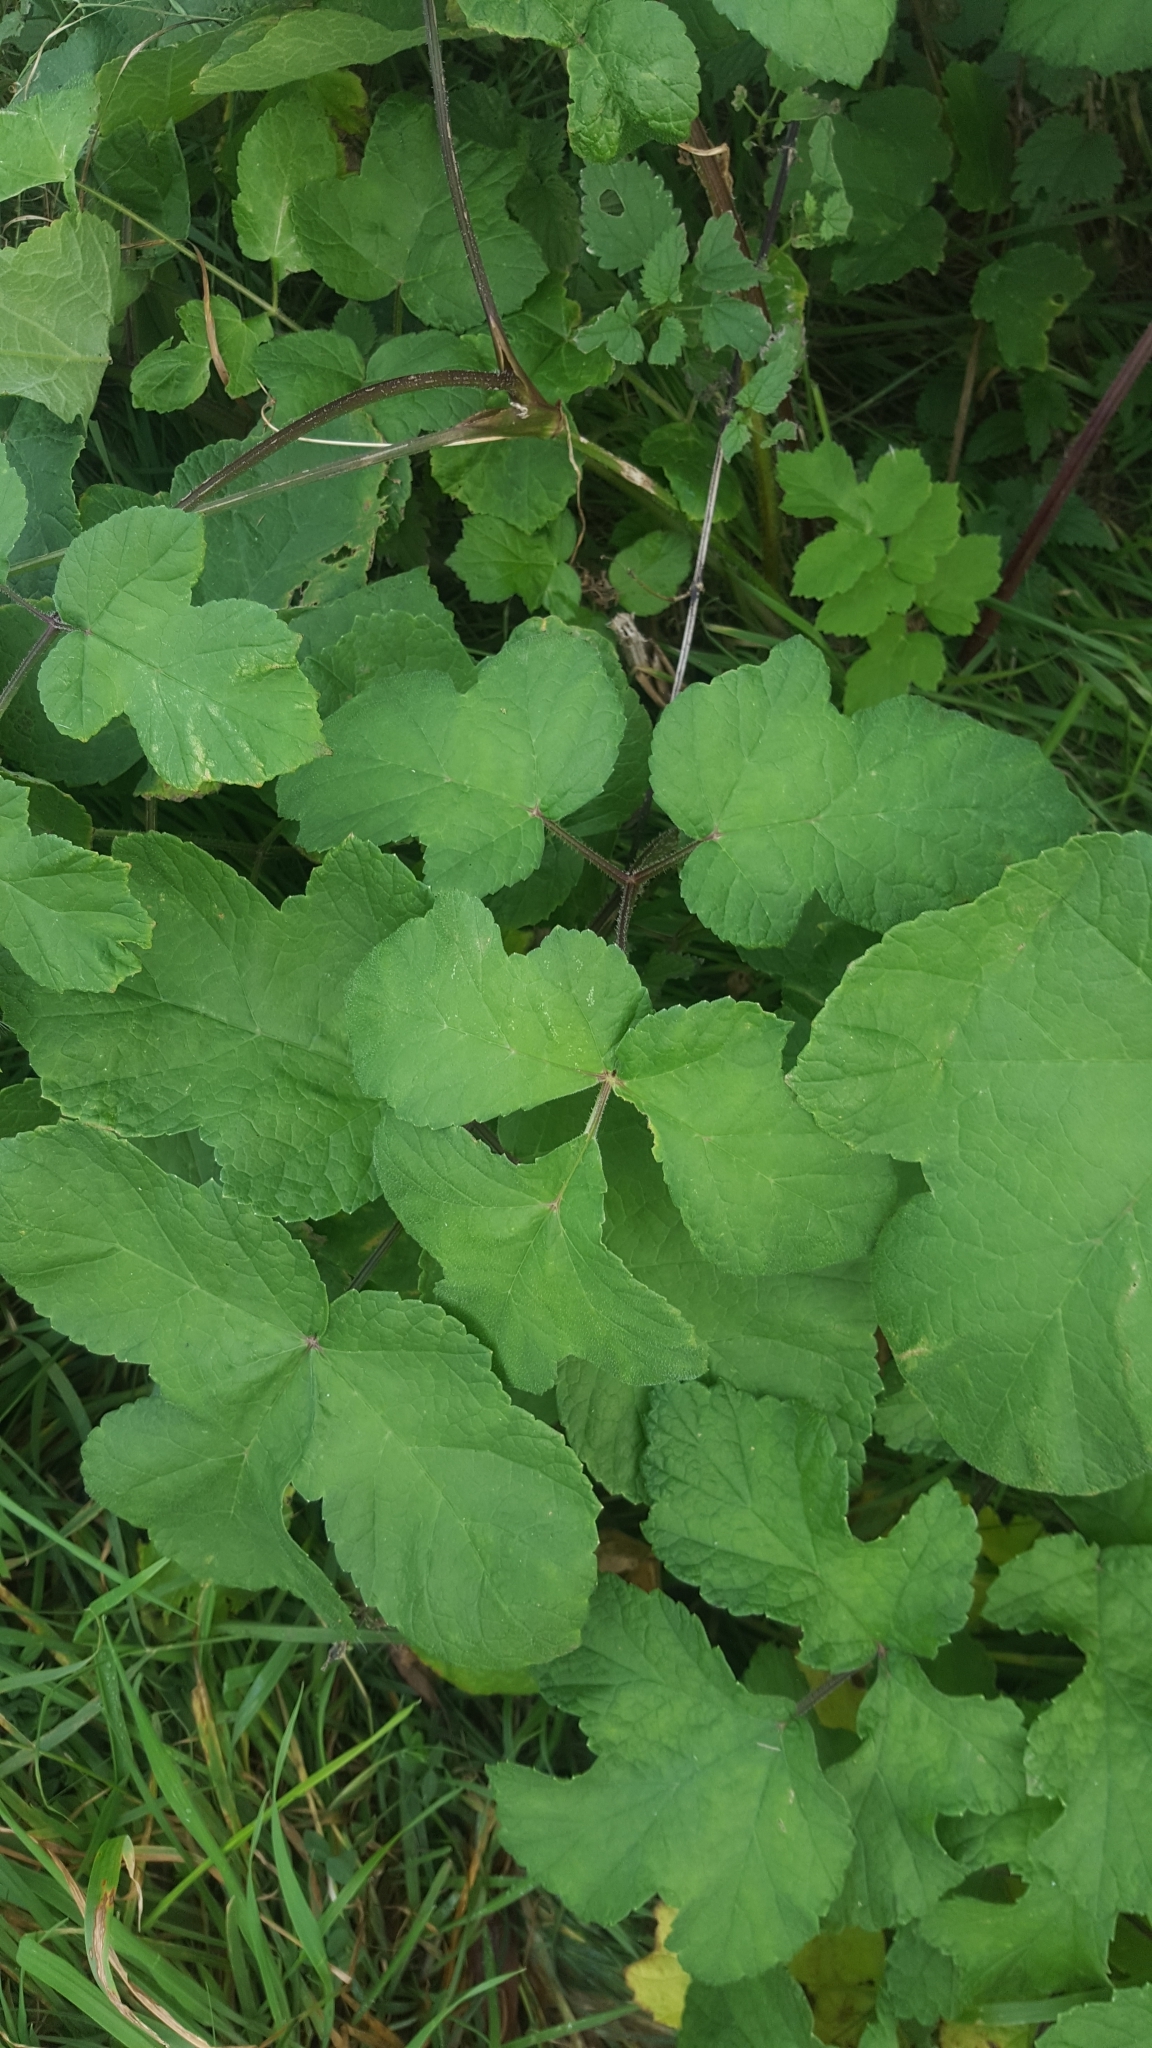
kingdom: Plantae
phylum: Tracheophyta
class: Magnoliopsida
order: Apiales
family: Apiaceae
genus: Heracleum
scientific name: Heracleum sphondylium
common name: Hogweed
